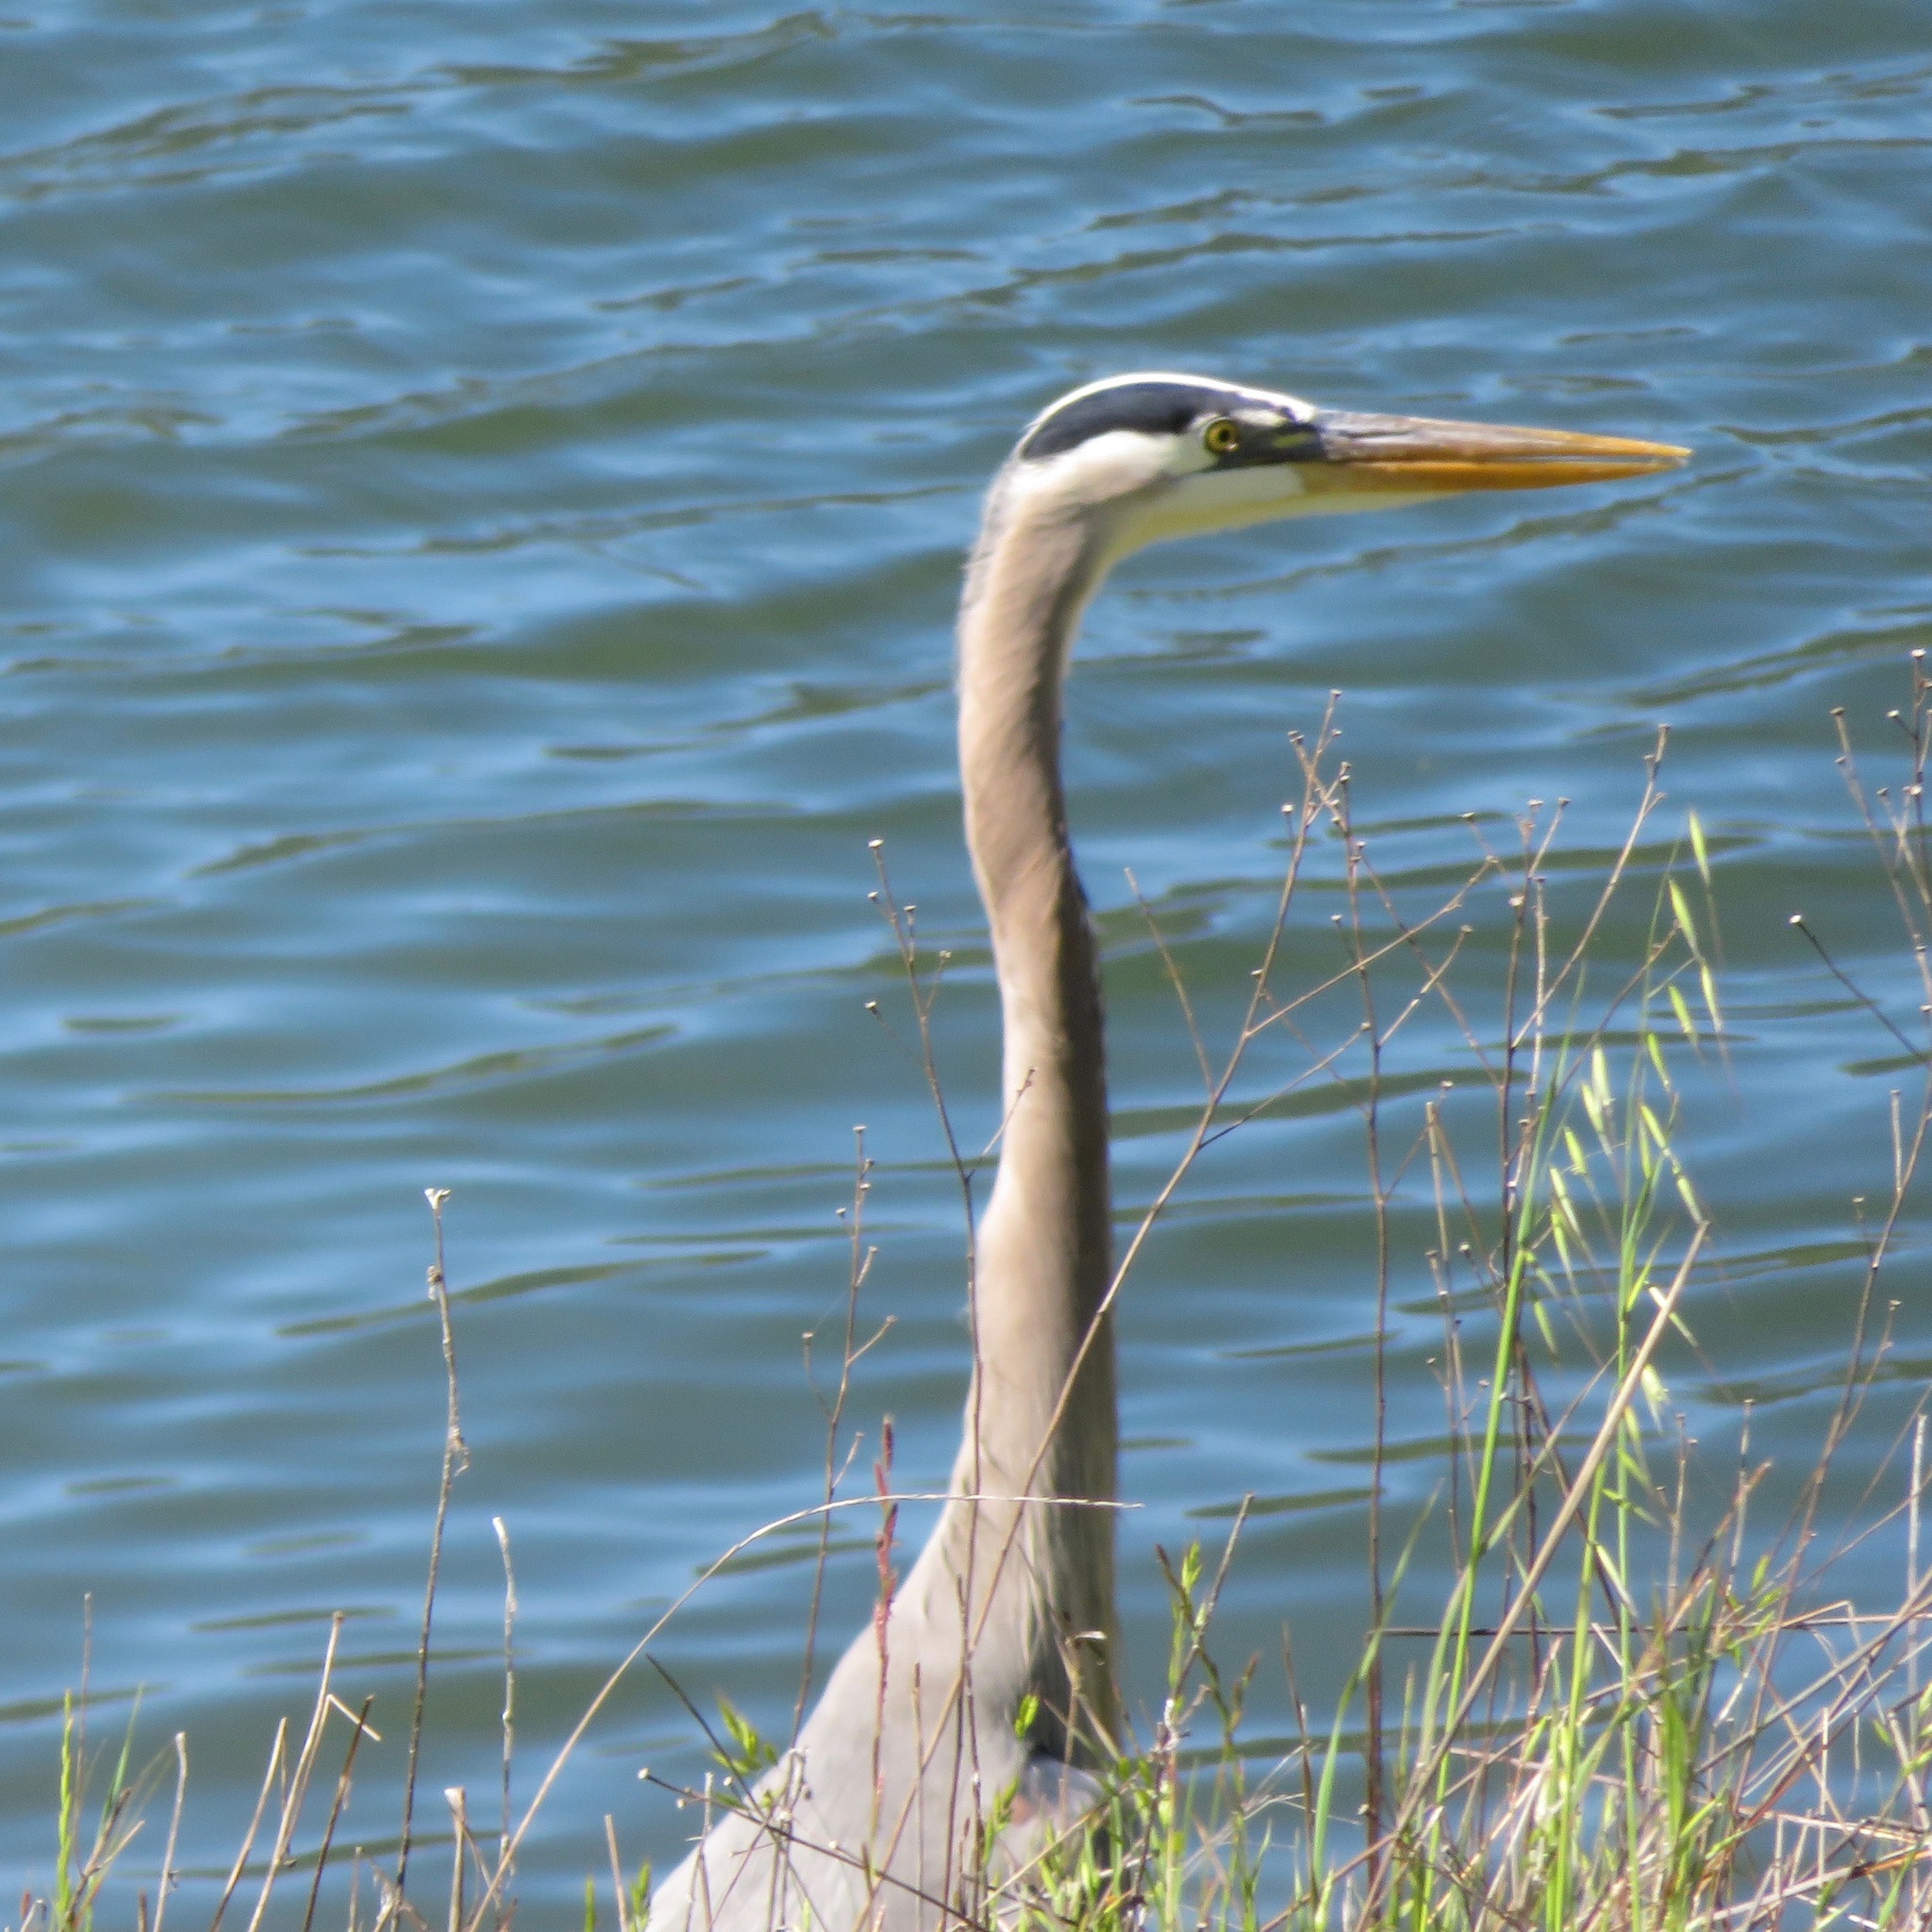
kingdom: Animalia
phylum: Chordata
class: Aves
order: Pelecaniformes
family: Ardeidae
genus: Ardea
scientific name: Ardea herodias
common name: Great blue heron
